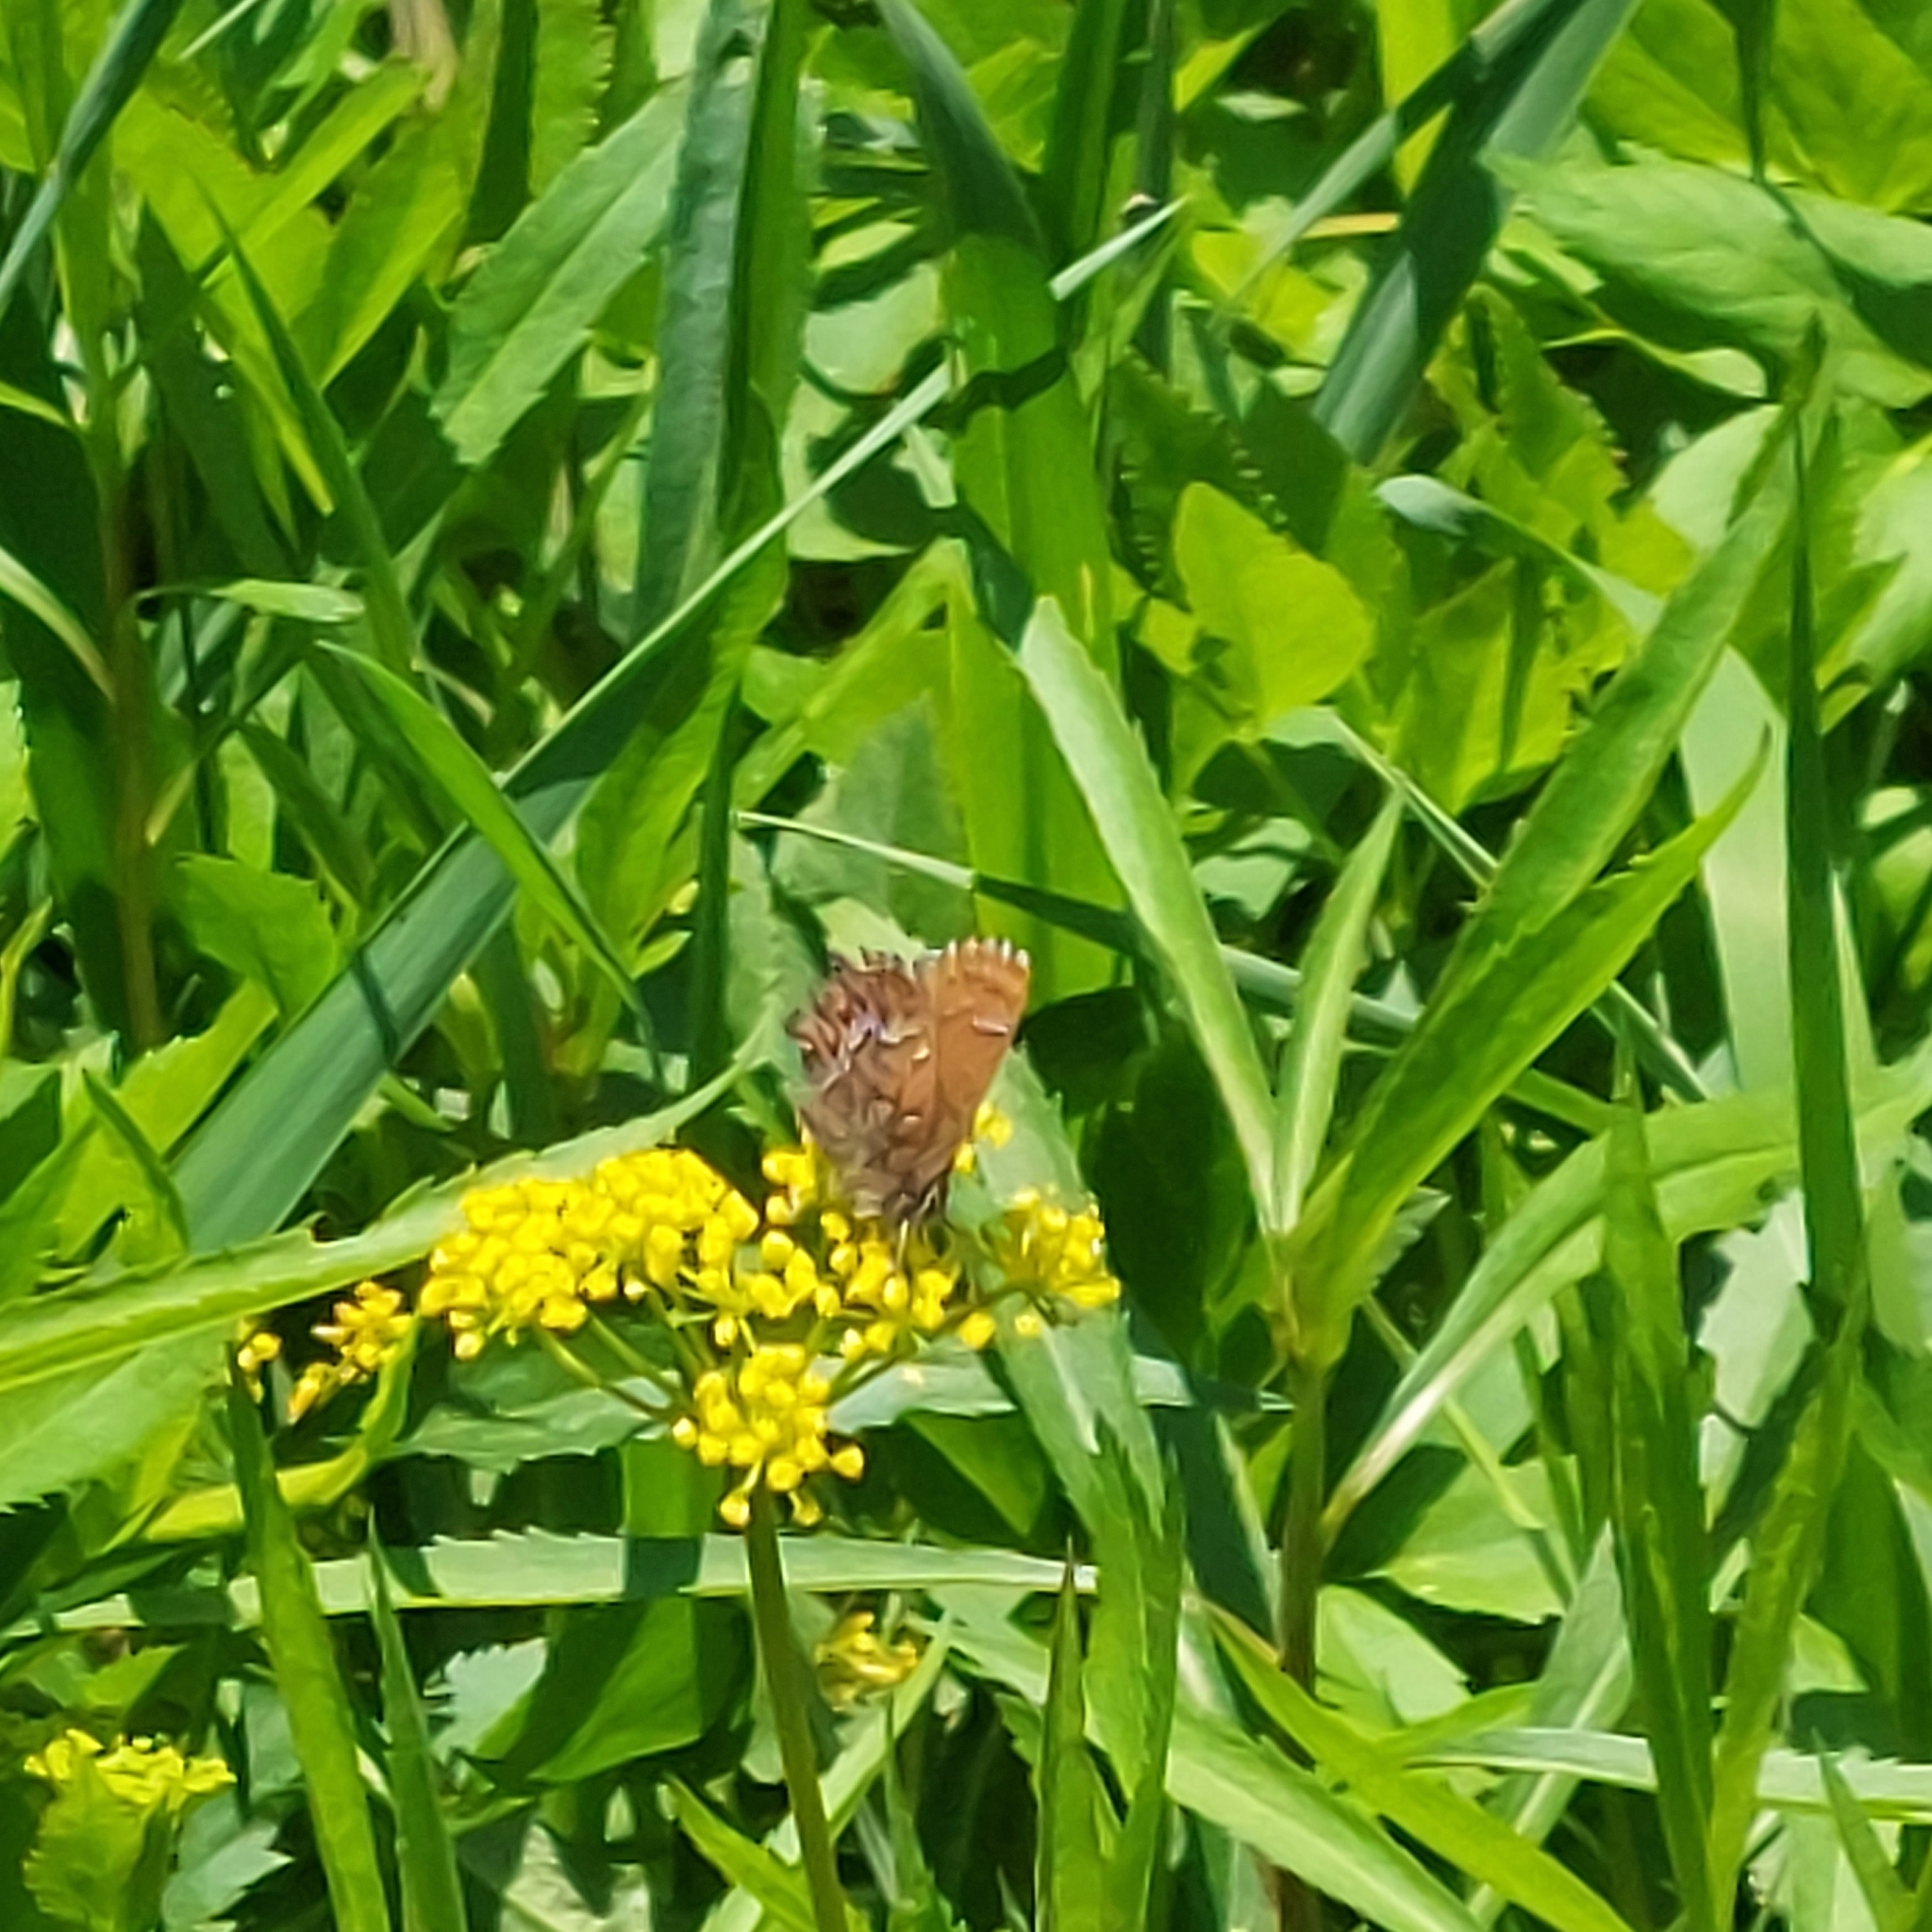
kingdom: Animalia
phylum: Arthropoda
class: Insecta
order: Lepidoptera
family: Lycaenidae
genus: Incisalia
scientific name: Incisalia niphon
